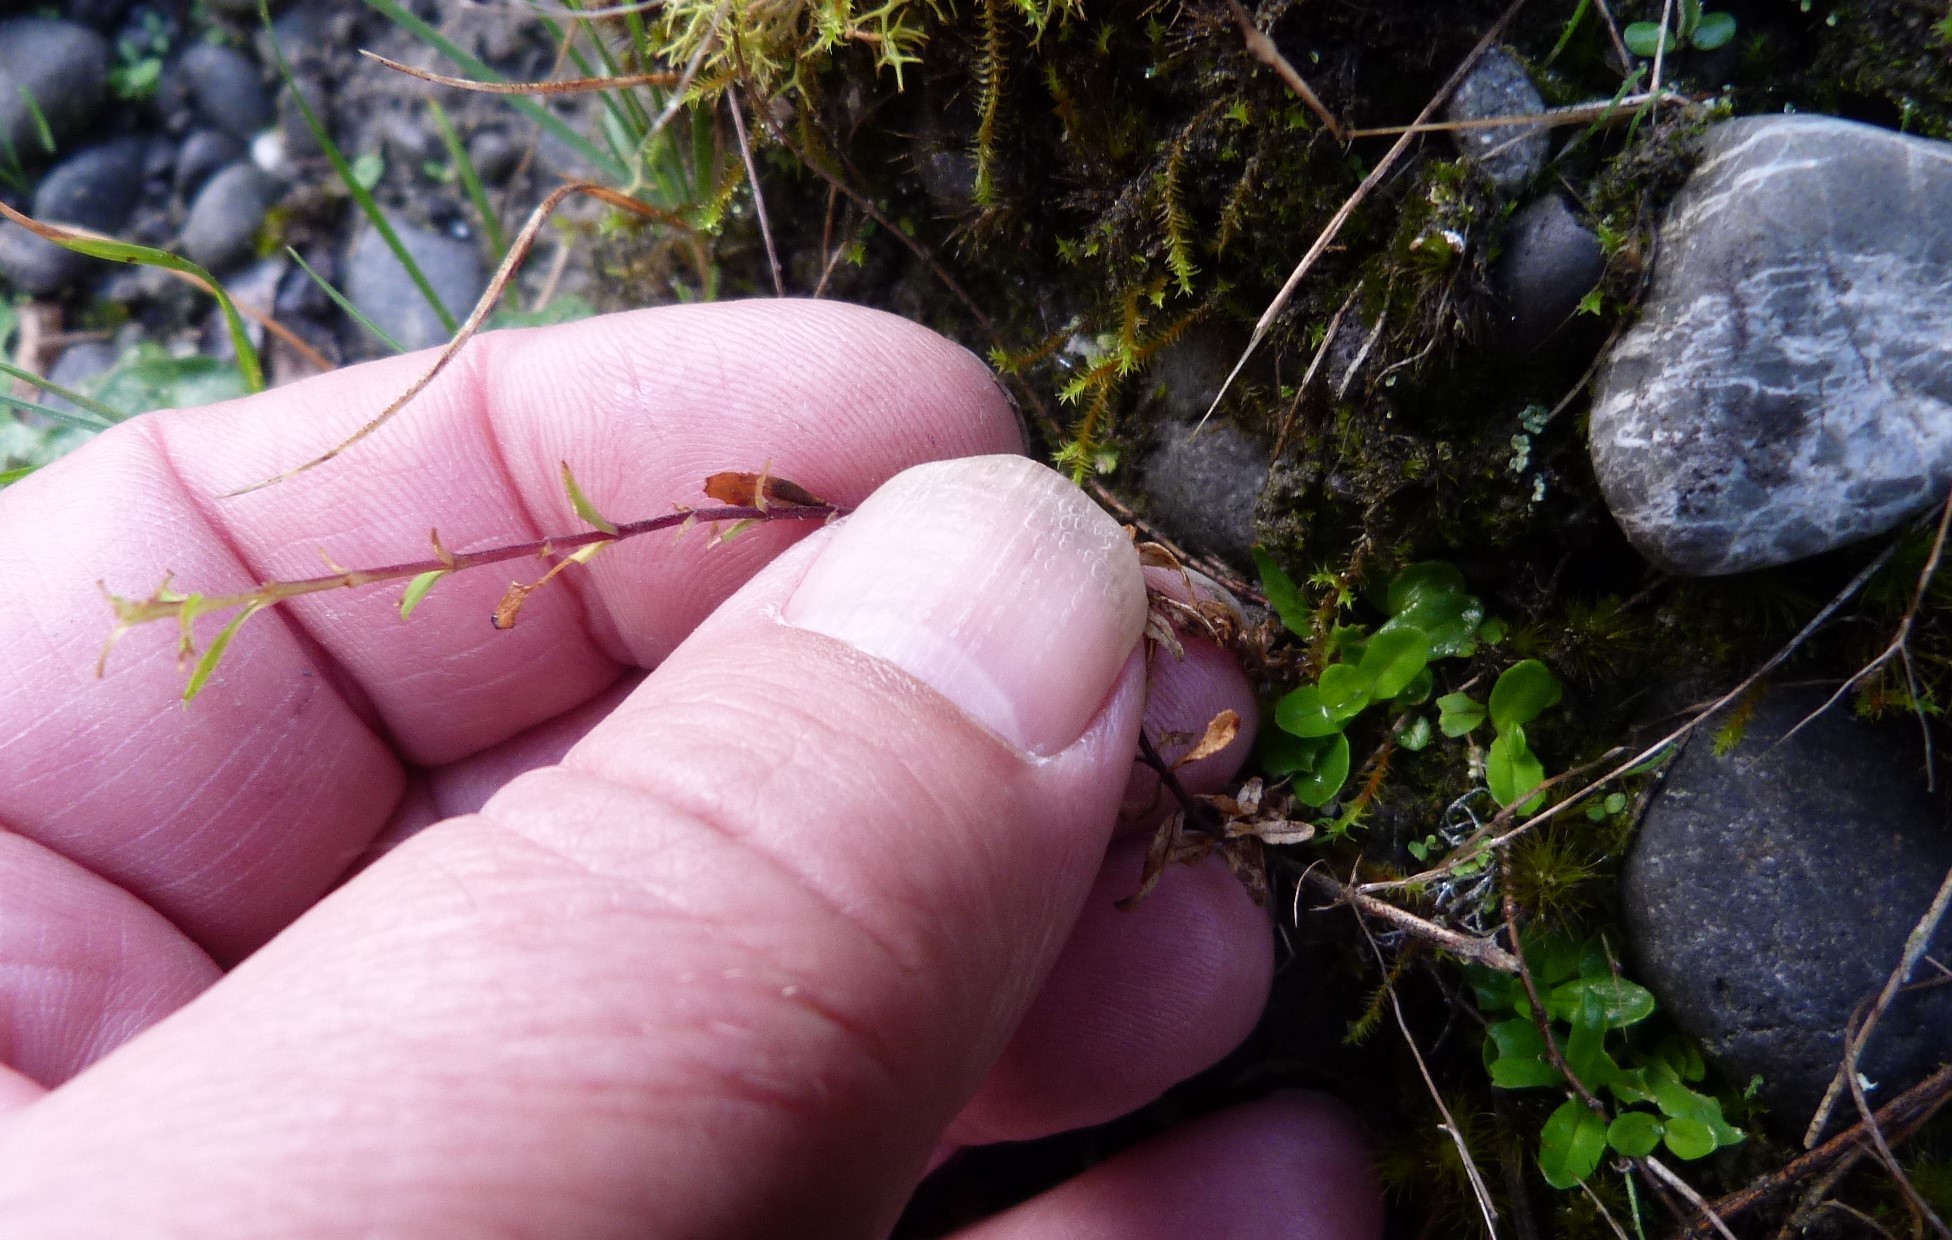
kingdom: Plantae
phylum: Tracheophyta
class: Magnoliopsida
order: Myrtales
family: Onagraceae
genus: Epilobium
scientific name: Epilobium microphyllum
